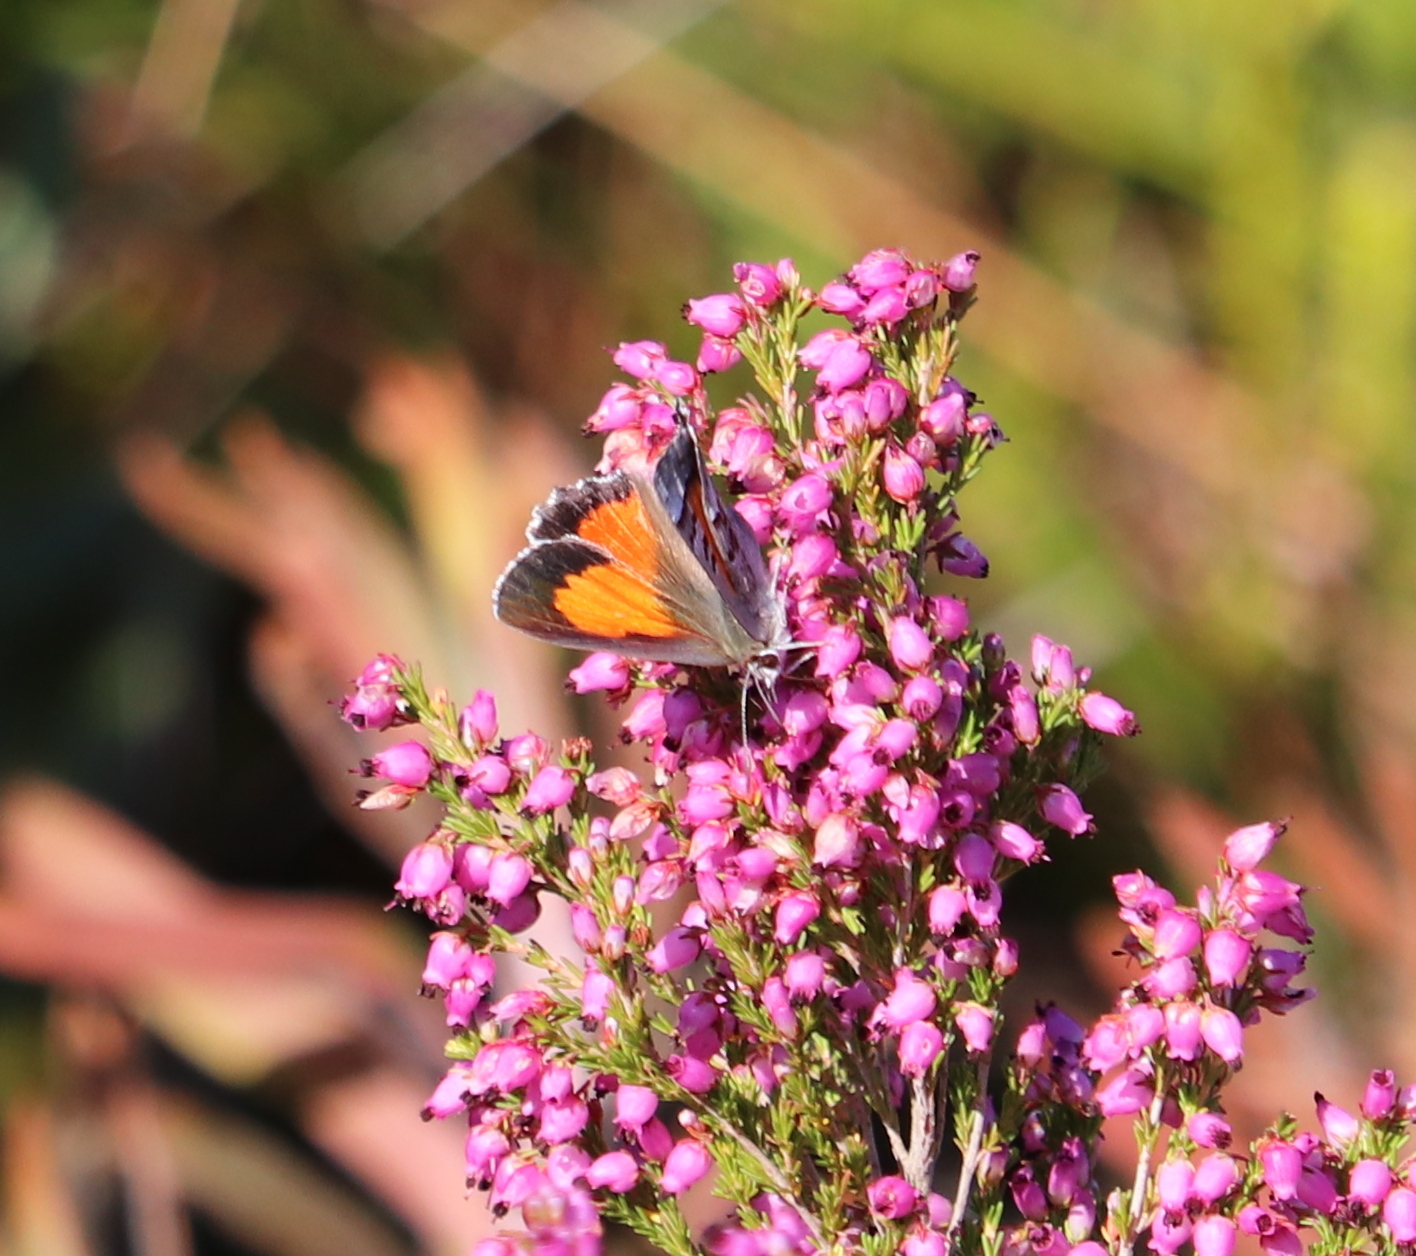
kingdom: Animalia
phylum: Arthropoda
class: Insecta
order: Lepidoptera
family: Lycaenidae
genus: Capys
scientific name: Capys alpheus
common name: Orange-banded protea butterfly
